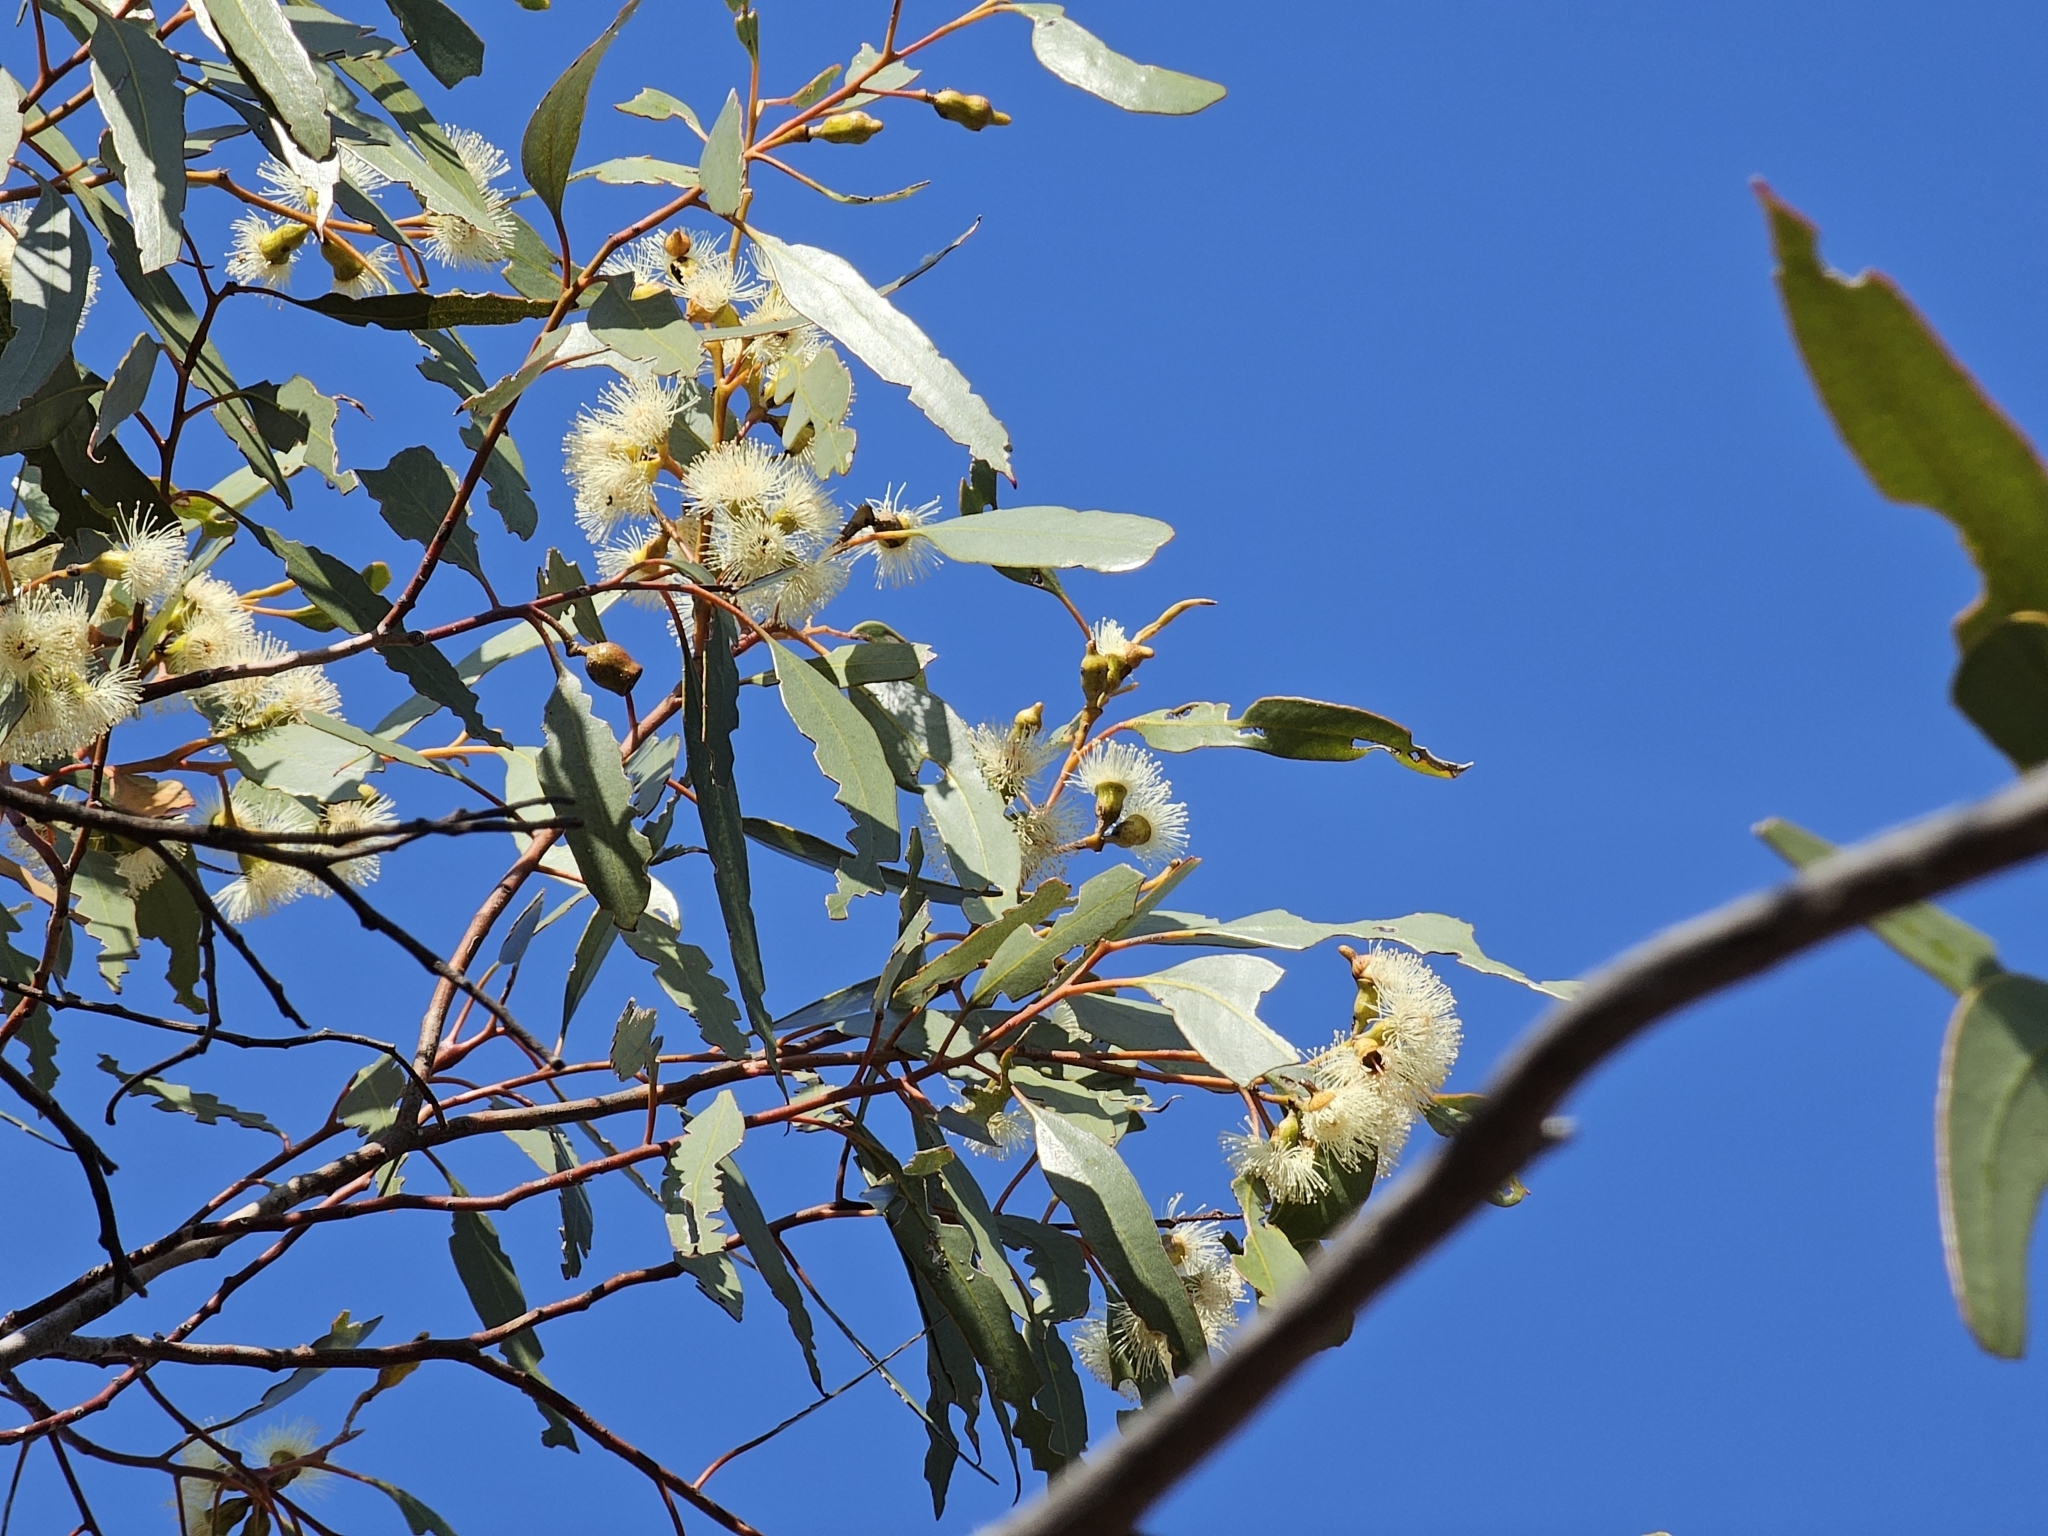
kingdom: Plantae
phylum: Tracheophyta
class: Magnoliopsida
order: Myrtales
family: Myrtaceae
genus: Eucalyptus
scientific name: Eucalyptus incrassata
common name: Ridge-fruit mallee
